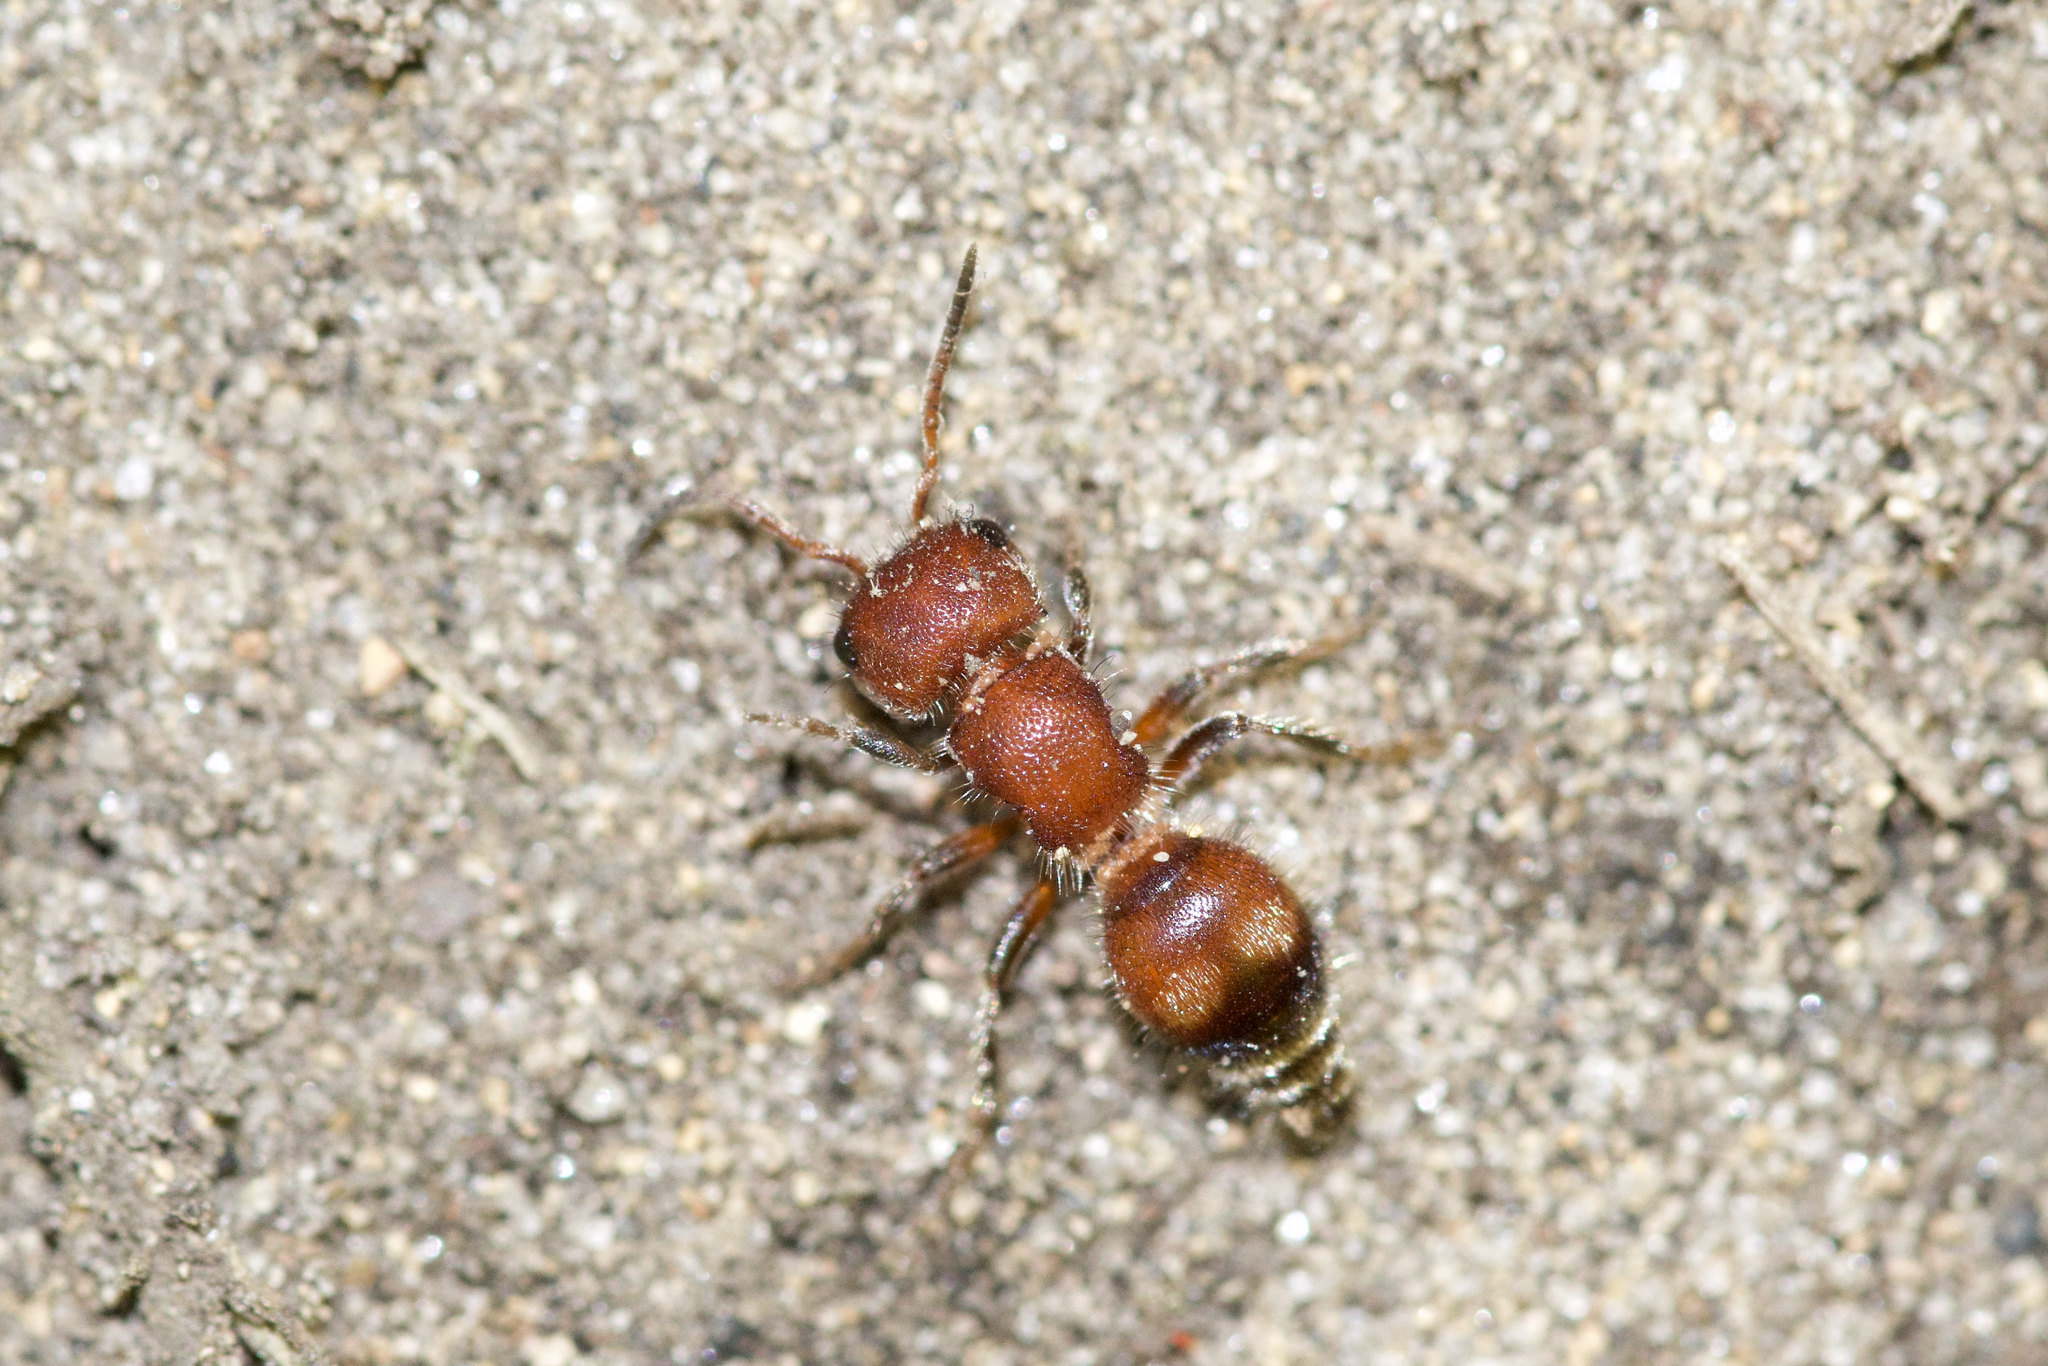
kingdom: Animalia
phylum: Arthropoda
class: Insecta
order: Hymenoptera
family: Mutillidae
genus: Pseudomethoca
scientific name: Pseudomethoca
